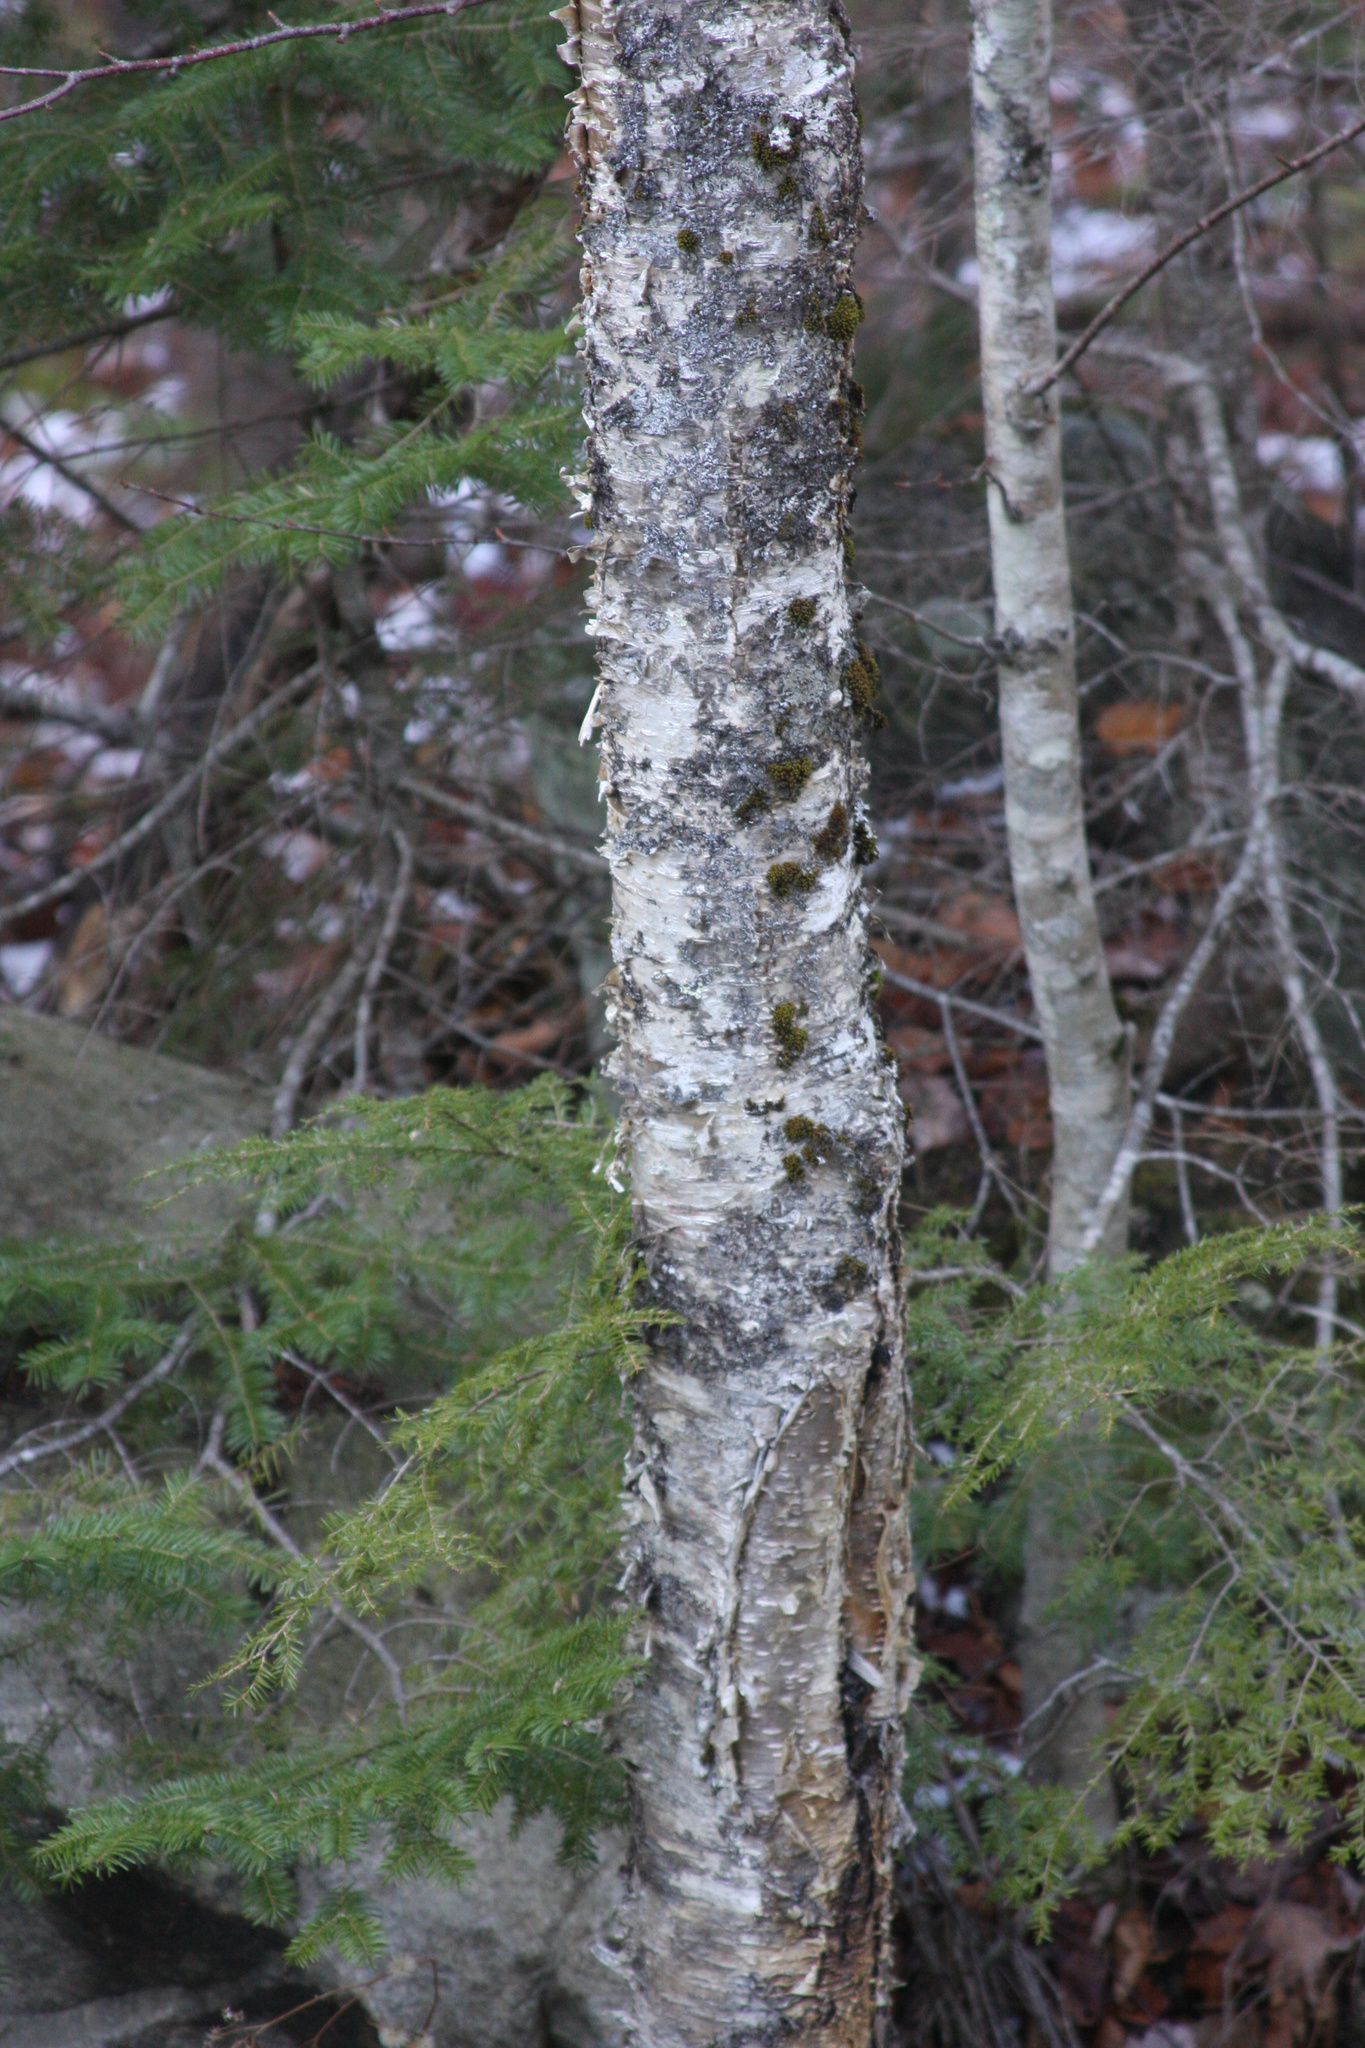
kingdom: Plantae
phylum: Tracheophyta
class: Magnoliopsida
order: Fagales
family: Betulaceae
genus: Betula
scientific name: Betula alleghaniensis
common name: Yellow birch
